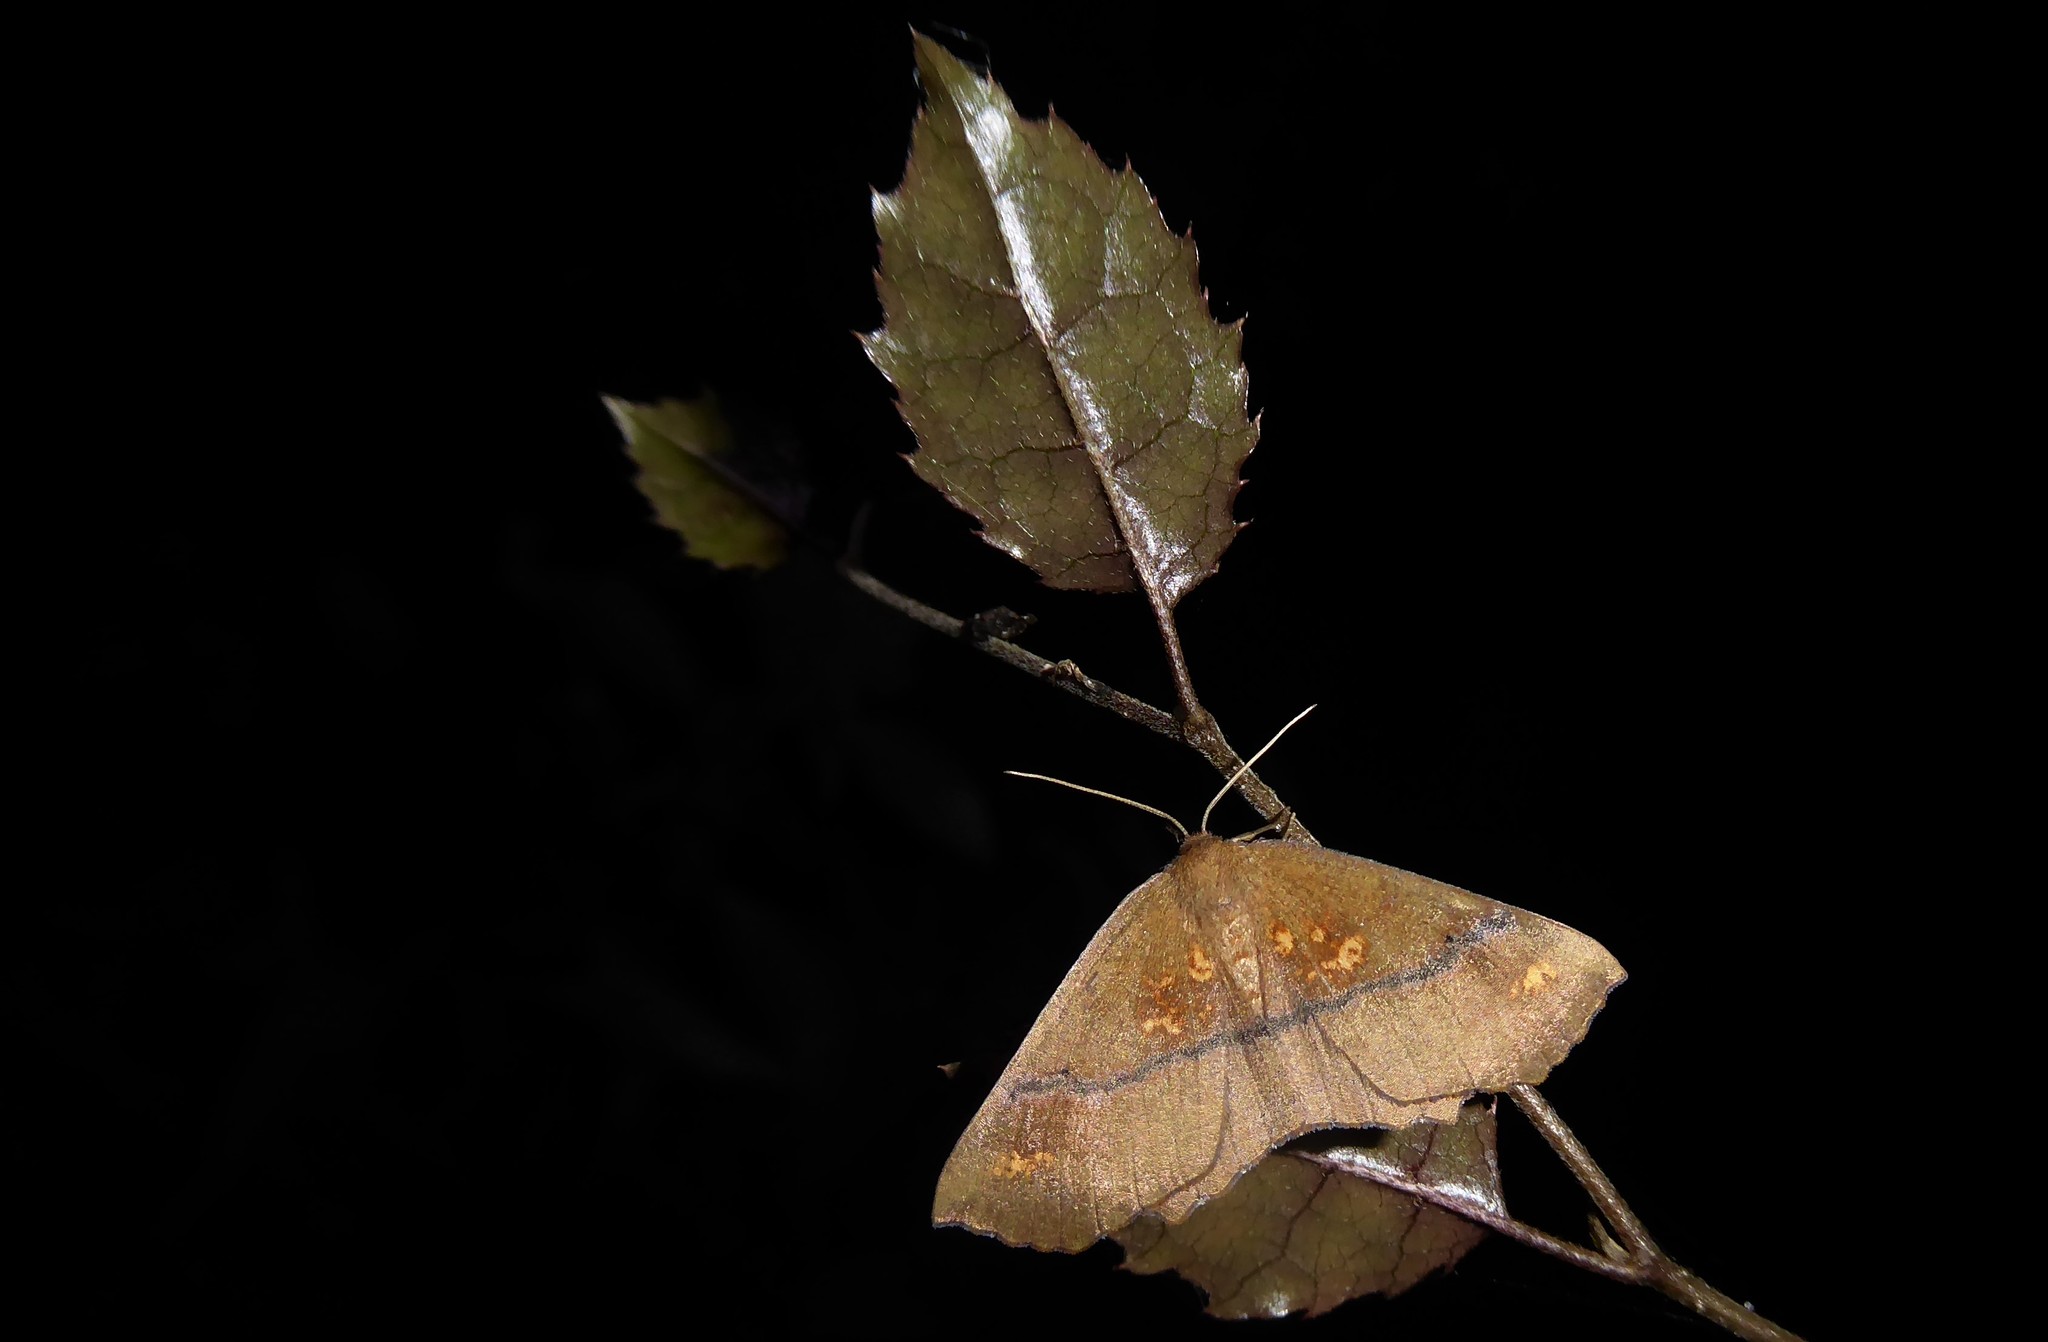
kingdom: Animalia
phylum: Arthropoda
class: Insecta
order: Lepidoptera
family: Geometridae
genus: Xyridacma
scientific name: Xyridacma ustaria
